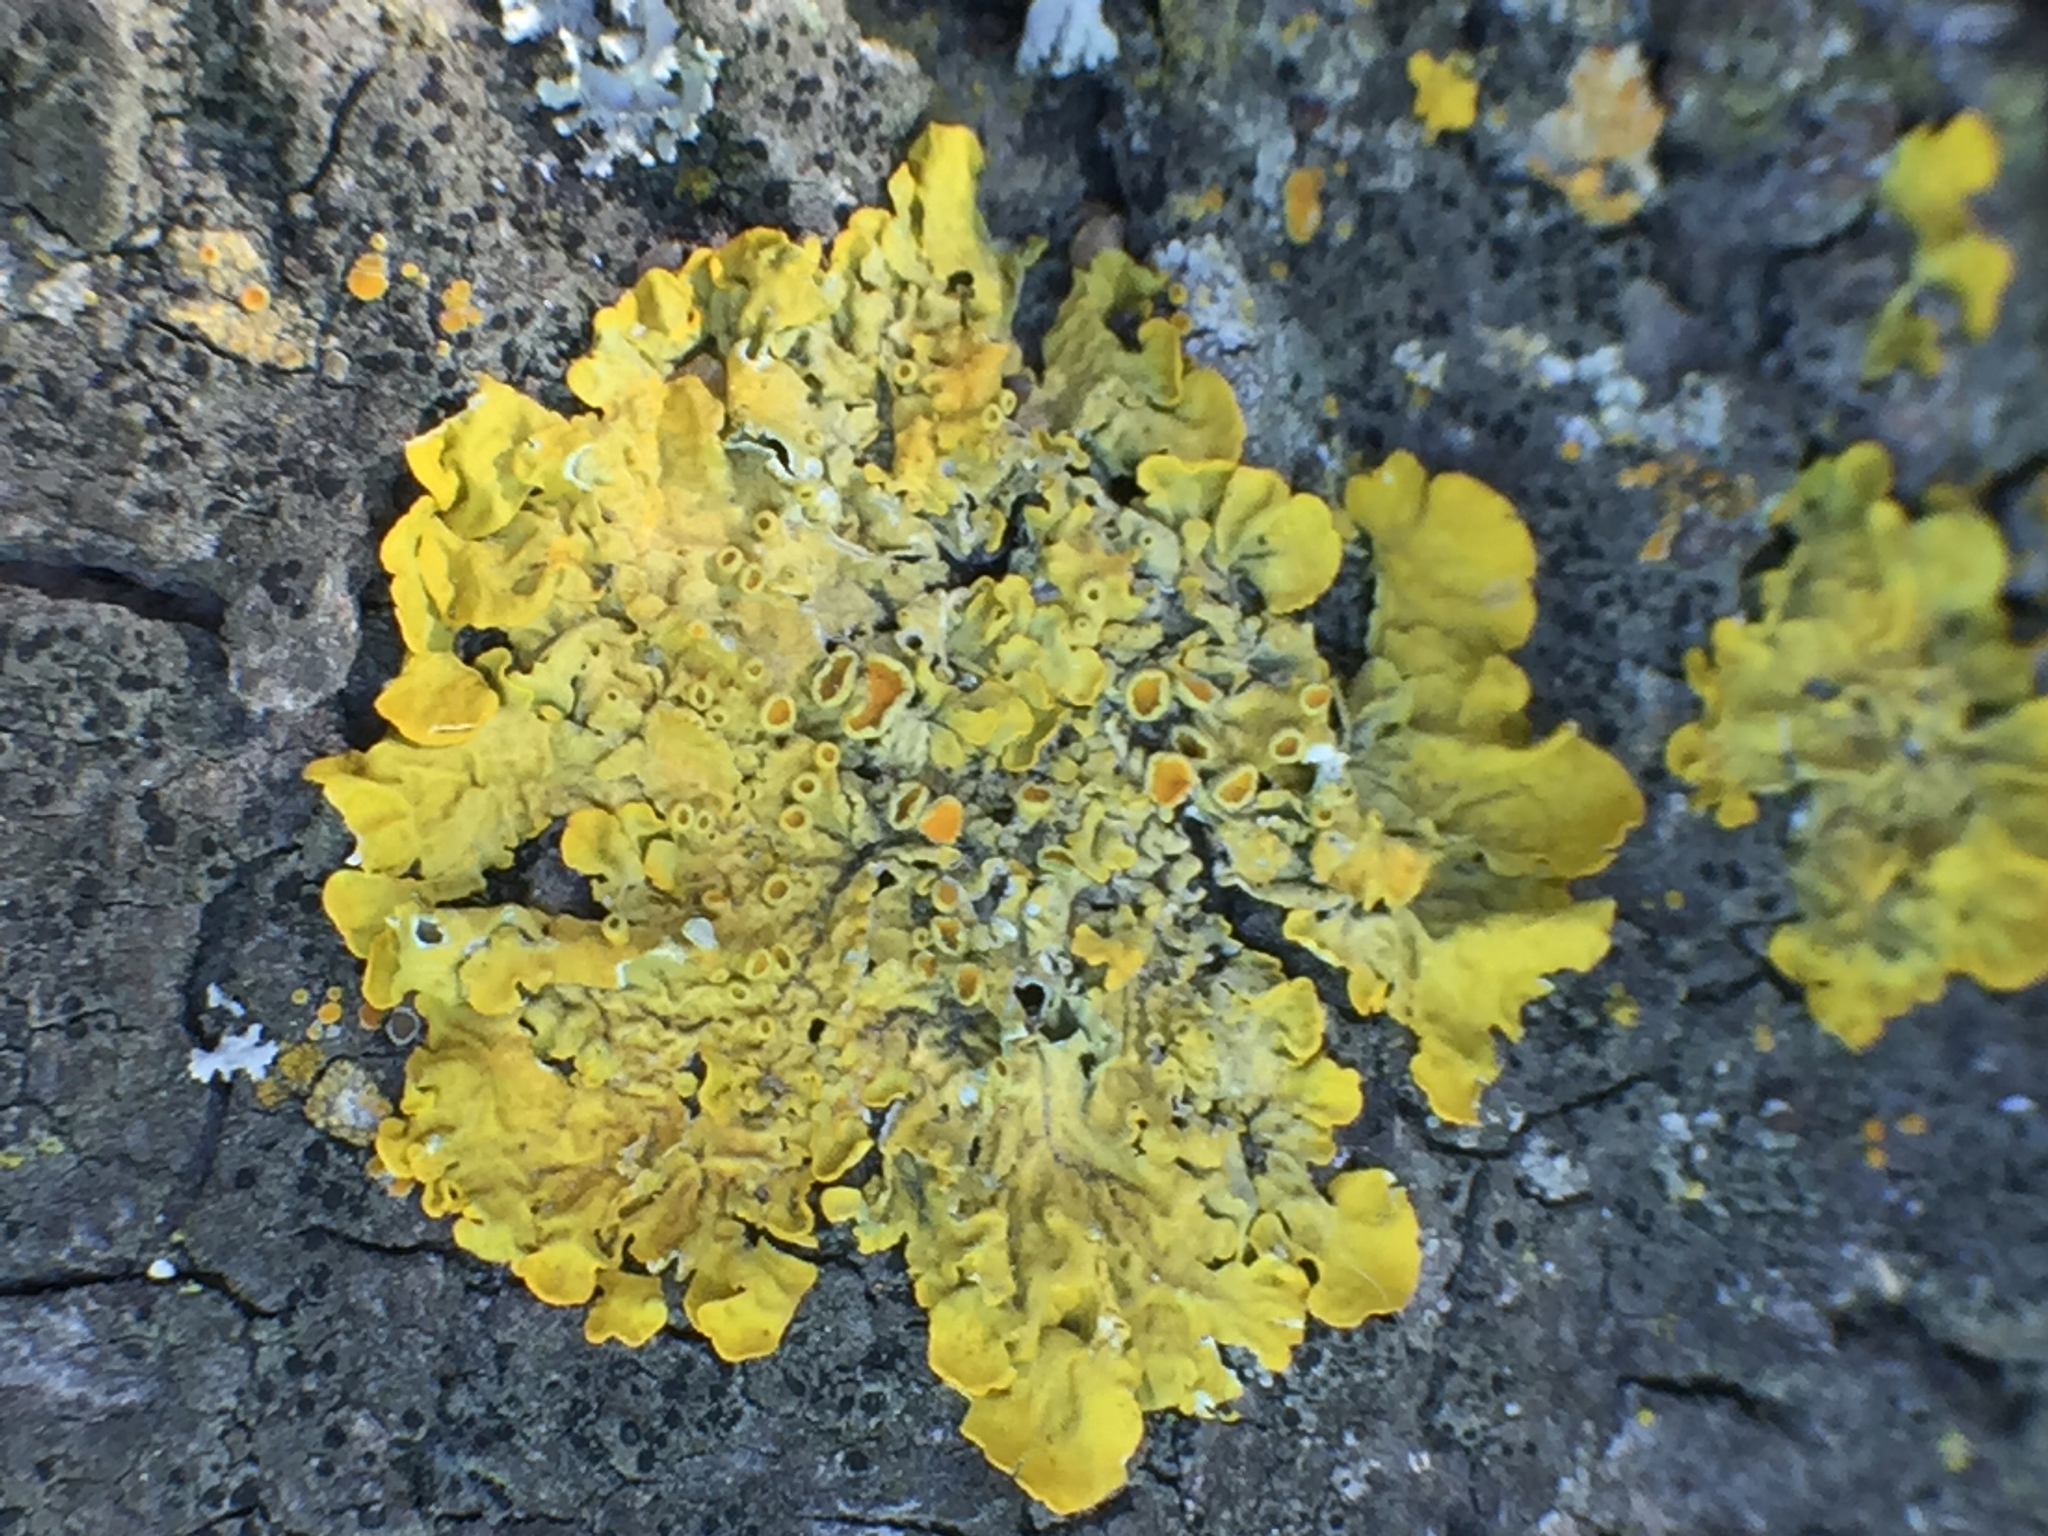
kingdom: Fungi
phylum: Ascomycota
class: Lecanoromycetes
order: Teloschistales
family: Teloschistaceae
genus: Xanthoria
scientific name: Xanthoria parietina
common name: Common orange lichen
